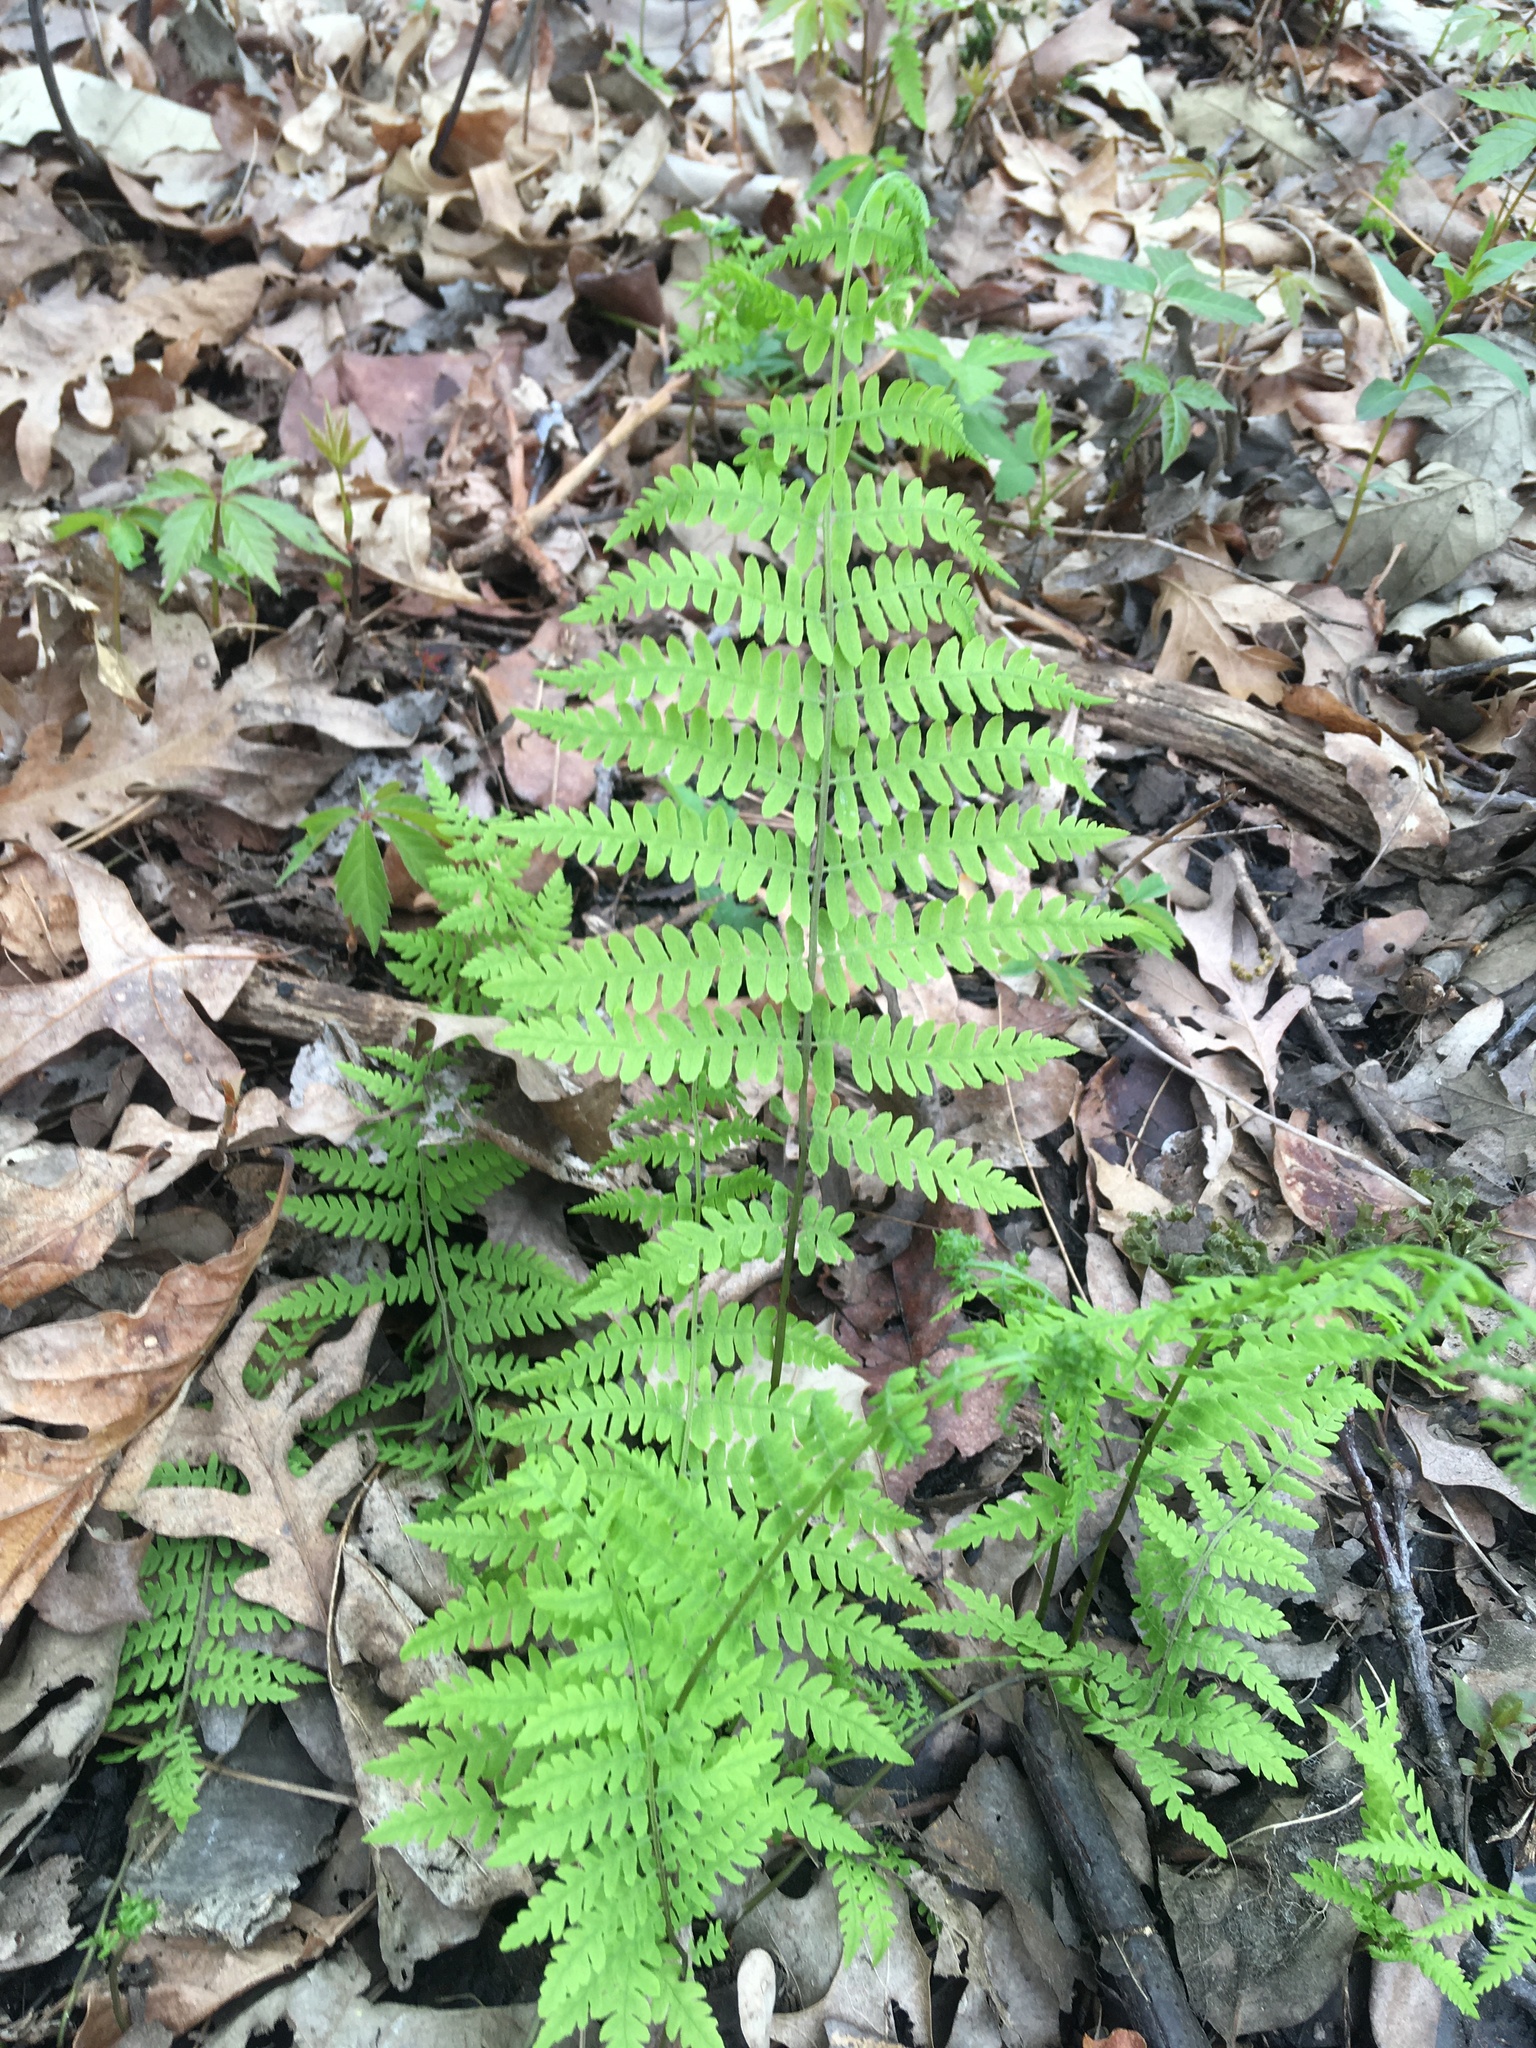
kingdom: Plantae
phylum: Tracheophyta
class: Polypodiopsida
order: Polypodiales
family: Thelypteridaceae
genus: Thelypteris
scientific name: Thelypteris palustris
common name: Marsh fern
